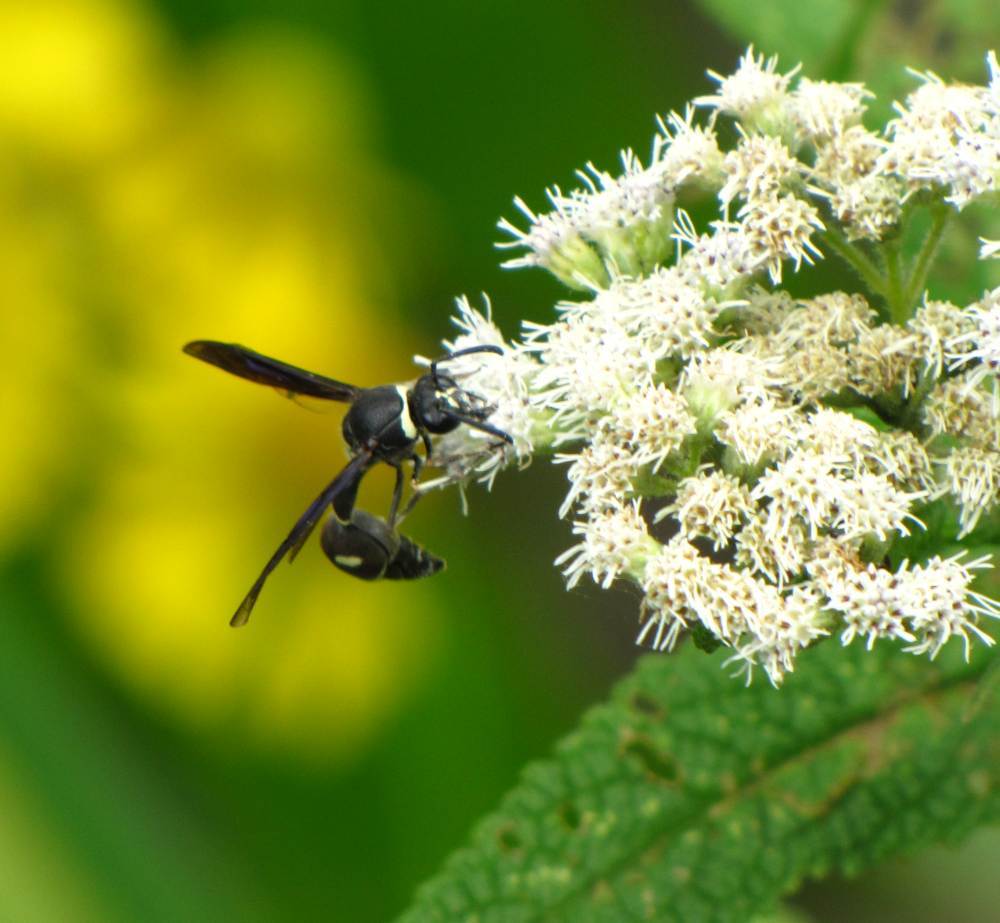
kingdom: Animalia
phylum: Arthropoda
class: Insecta
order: Hymenoptera
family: Vespidae
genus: Eumenes
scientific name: Eumenes fraternus
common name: Fraternal potter wasp
